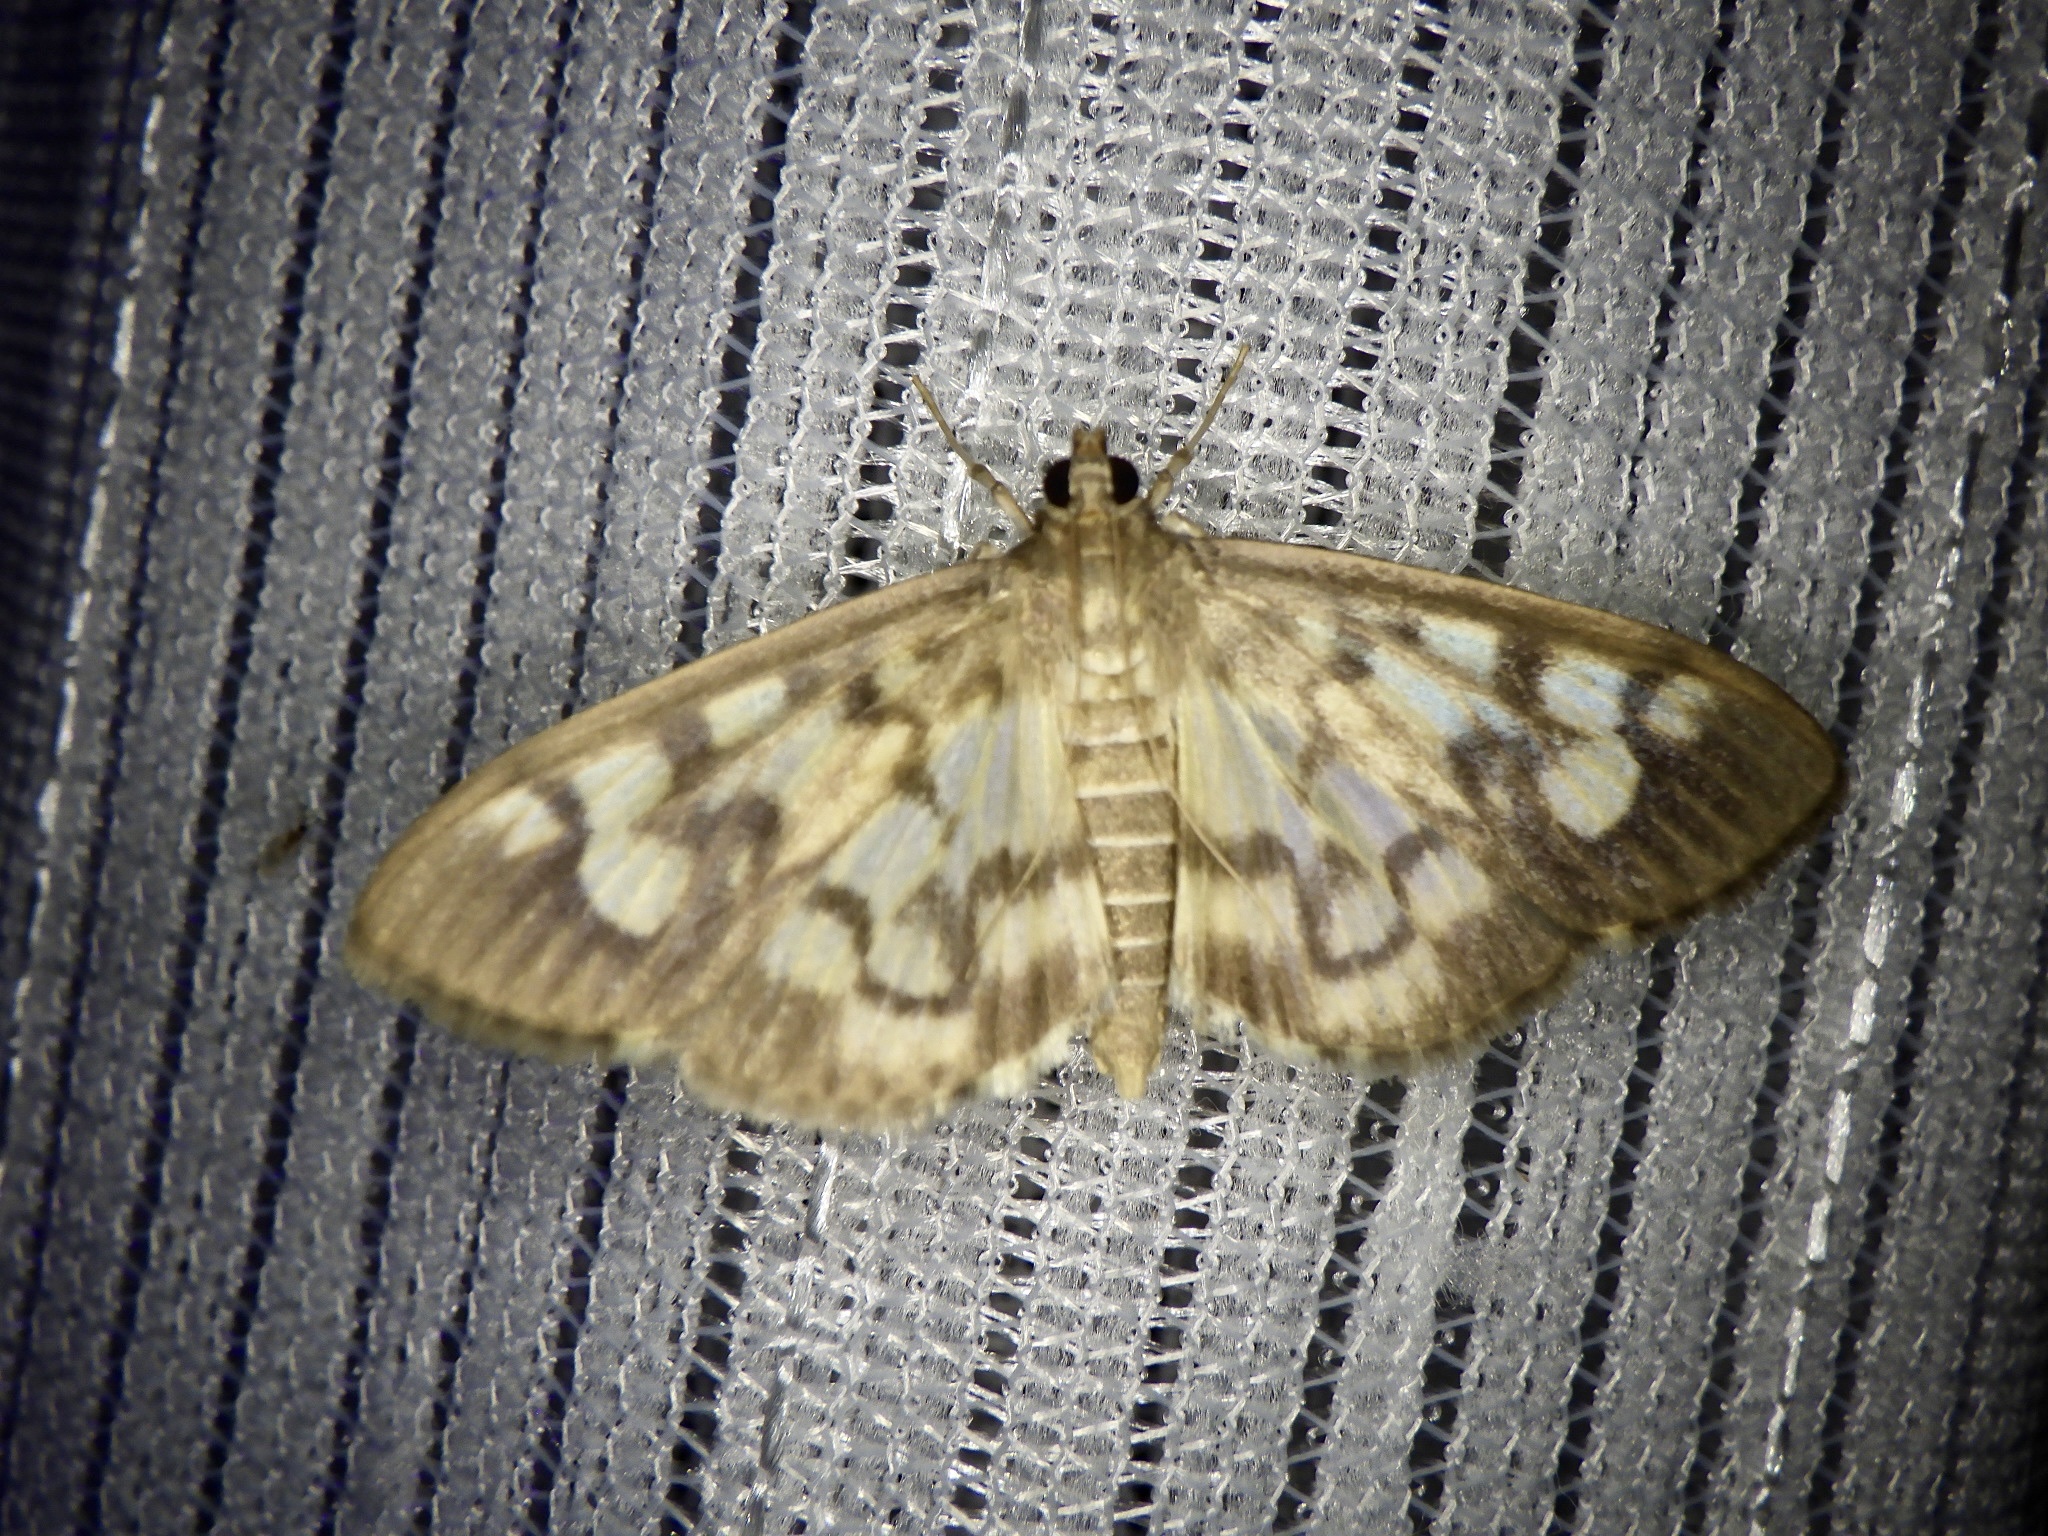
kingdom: Animalia
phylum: Arthropoda
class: Insecta
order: Lepidoptera
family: Crambidae
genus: Syllepte
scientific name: Syllepte taiwanalis
